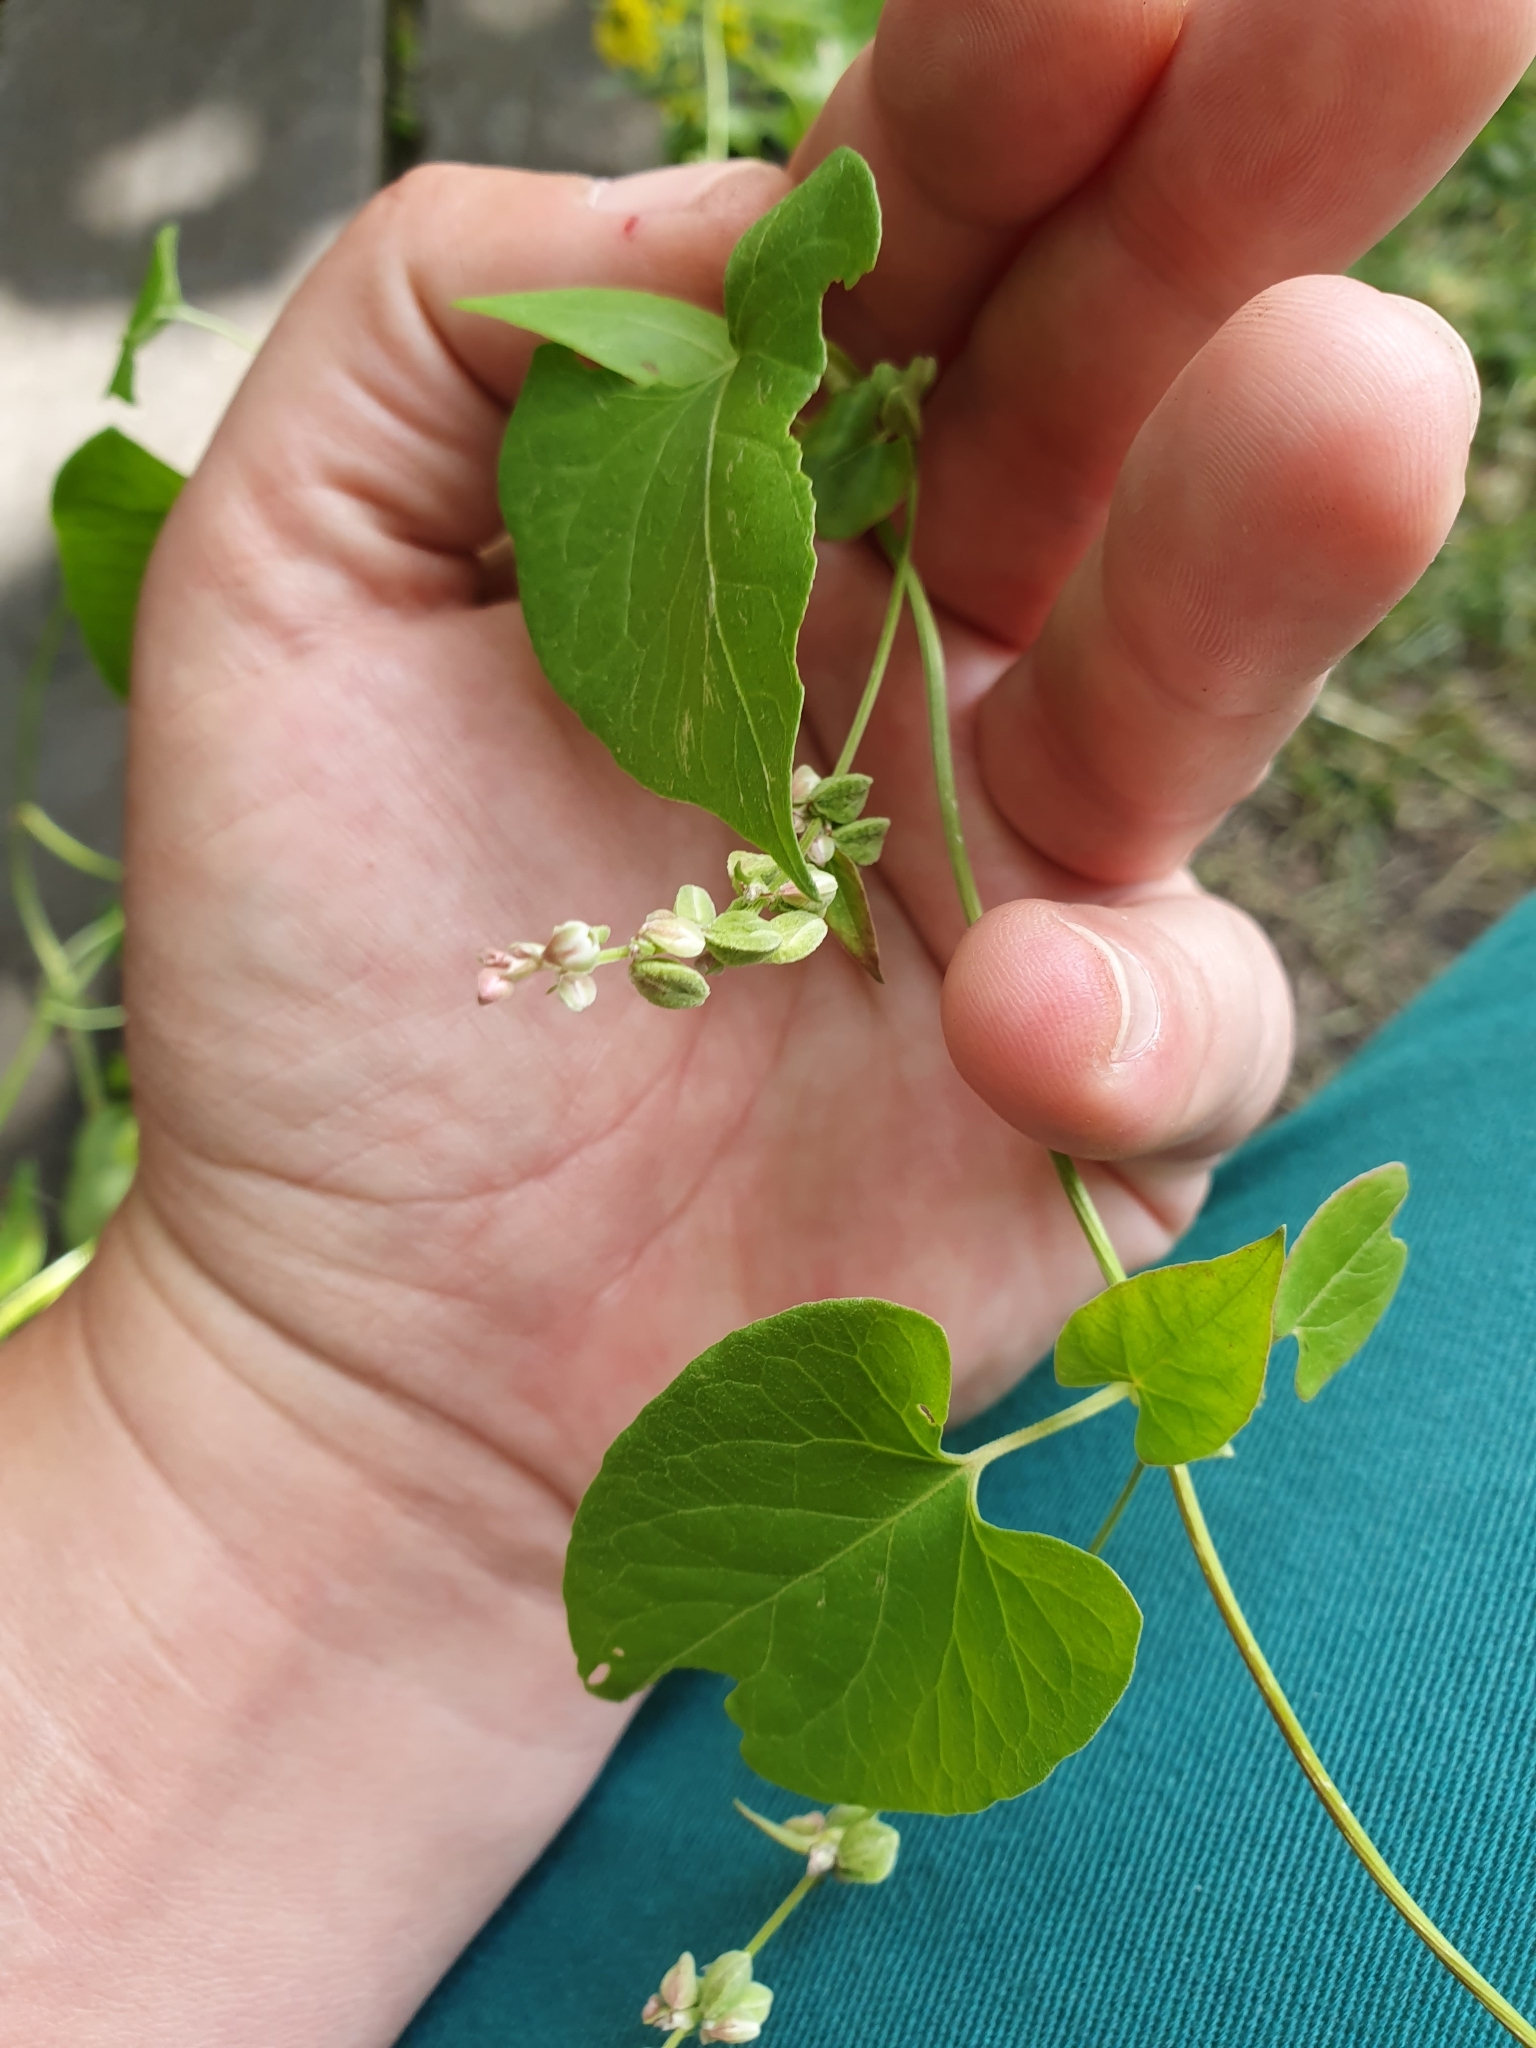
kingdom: Plantae
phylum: Tracheophyta
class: Magnoliopsida
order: Caryophyllales
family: Polygonaceae
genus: Fallopia
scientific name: Fallopia convolvulus
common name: Black bindweed
